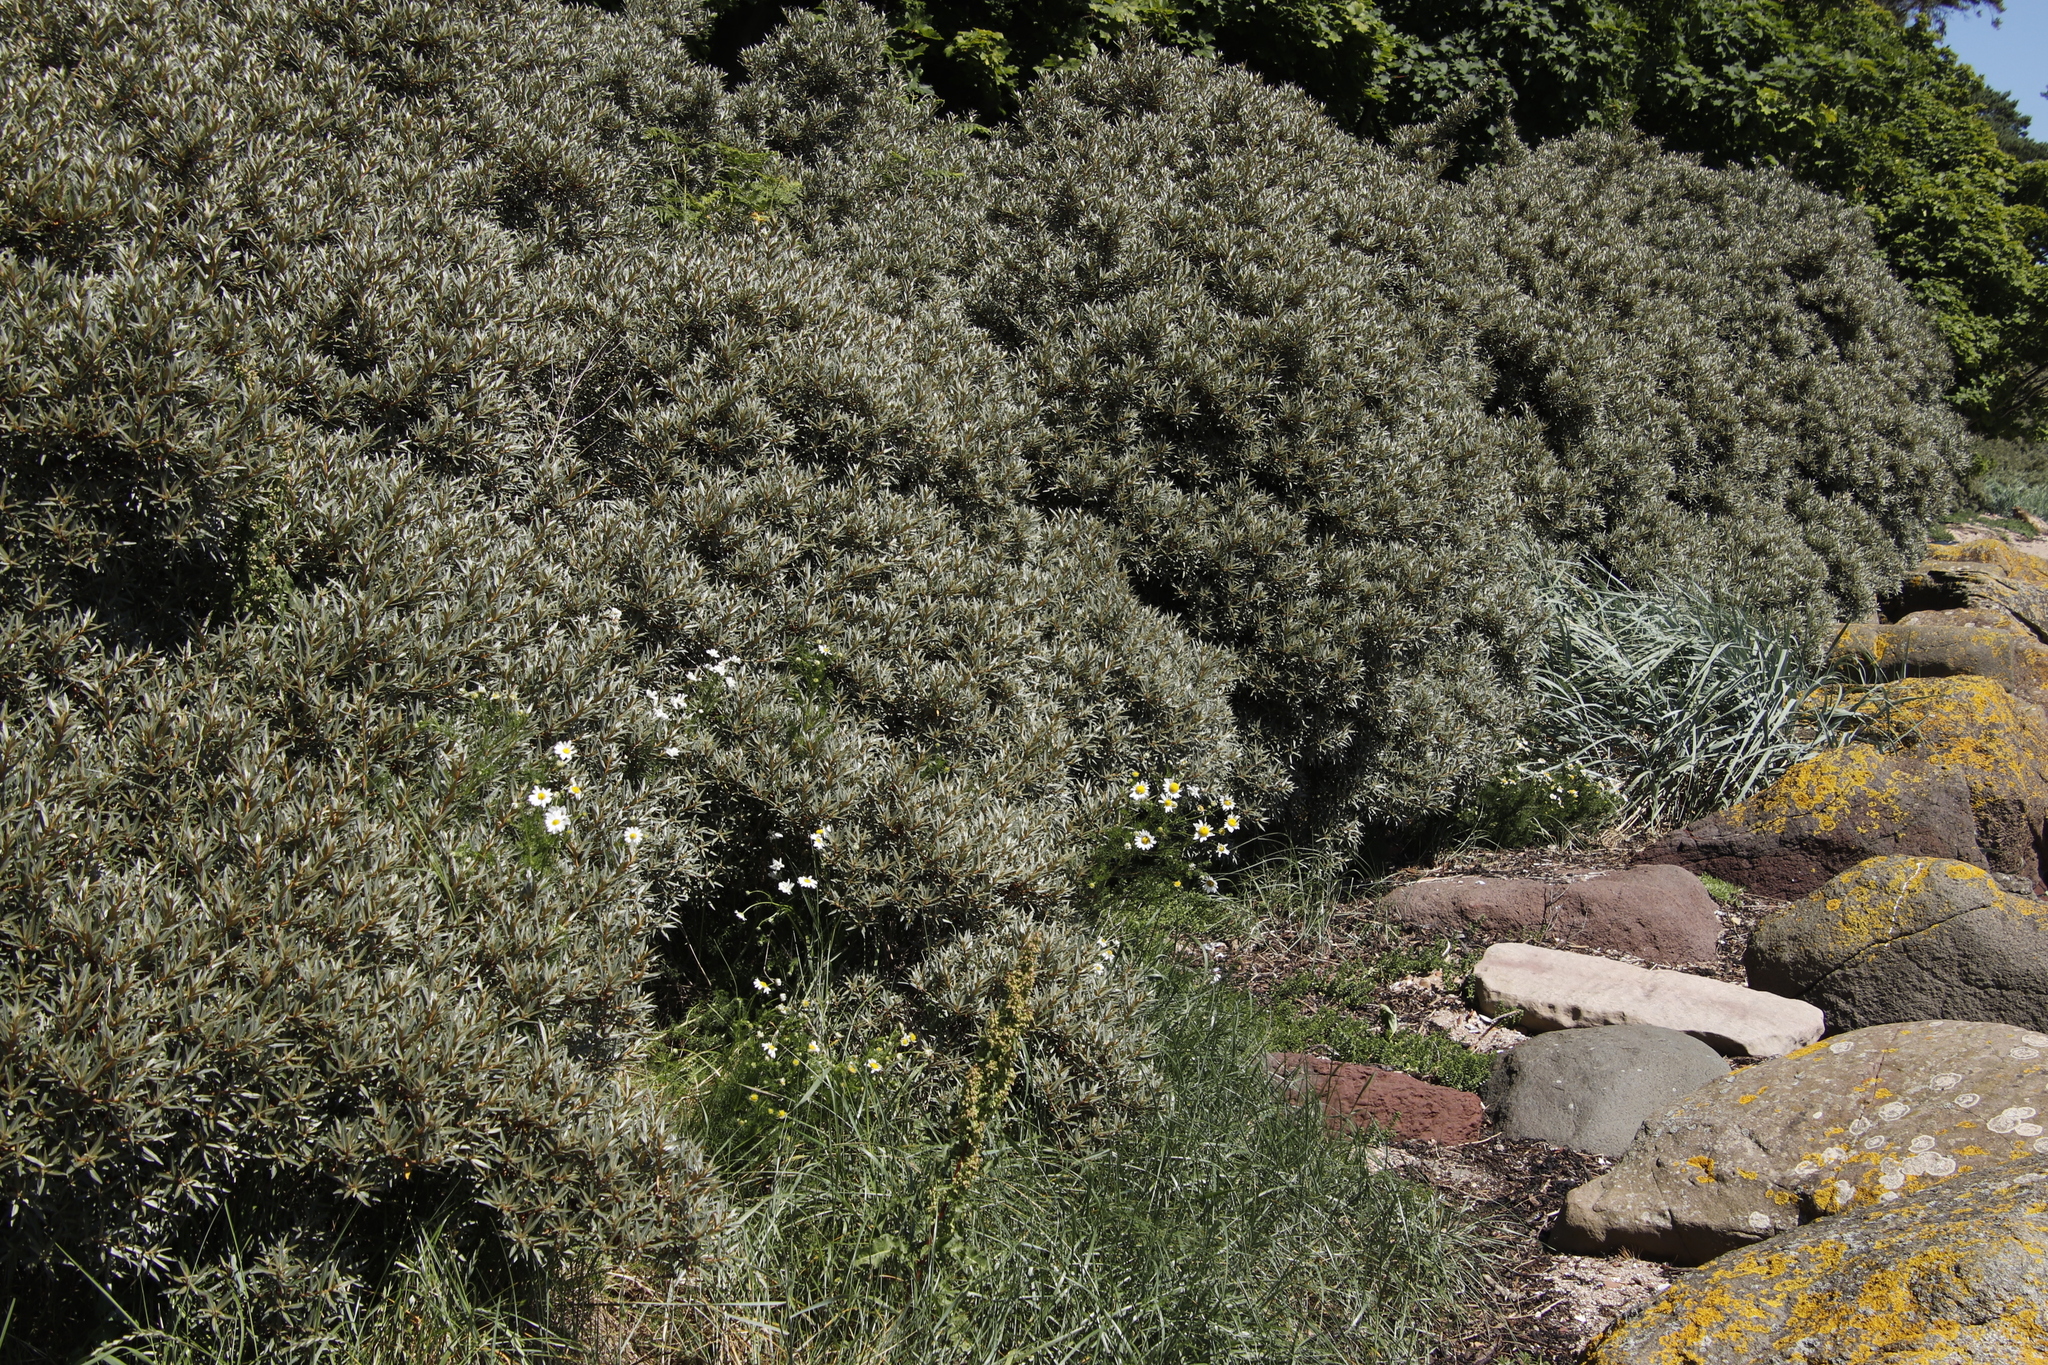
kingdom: Plantae
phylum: Tracheophyta
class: Magnoliopsida
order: Rosales
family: Elaeagnaceae
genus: Hippophae
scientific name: Hippophae rhamnoides
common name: Sea-buckthorn
